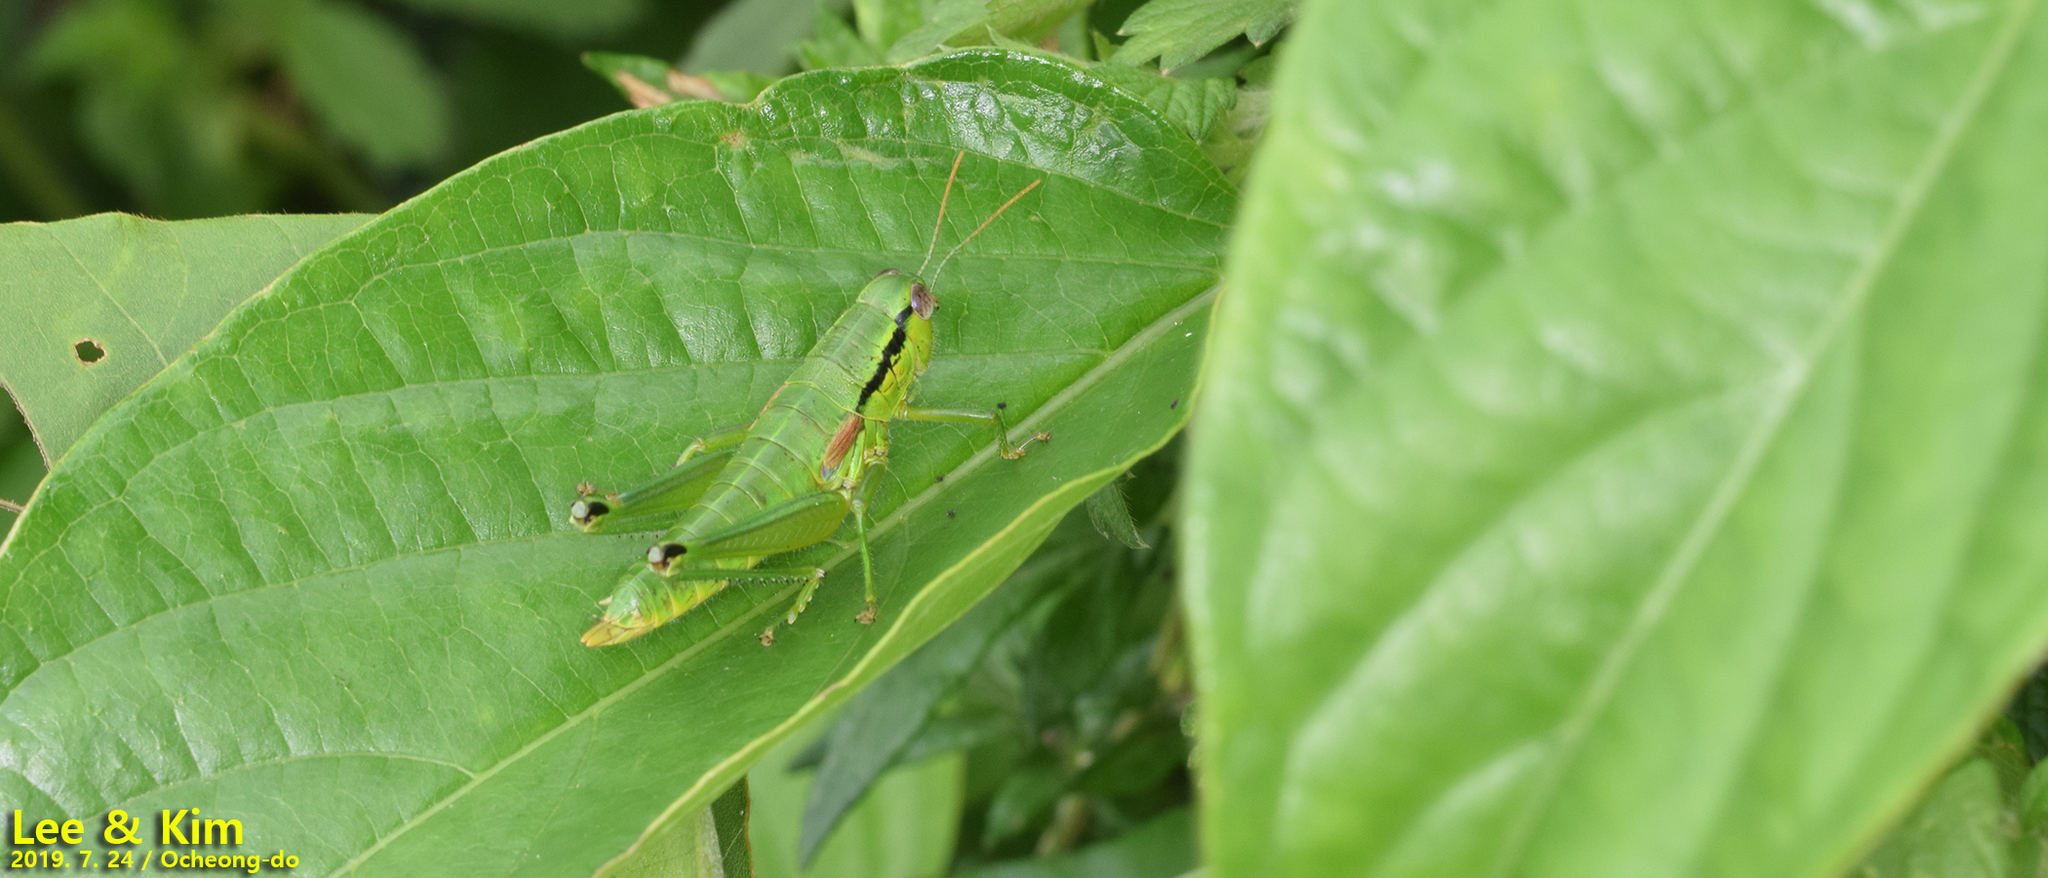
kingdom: Animalia
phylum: Arthropoda
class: Insecta
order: Orthoptera
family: Acrididae
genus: Anapodisma
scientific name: Anapodisma miramae
